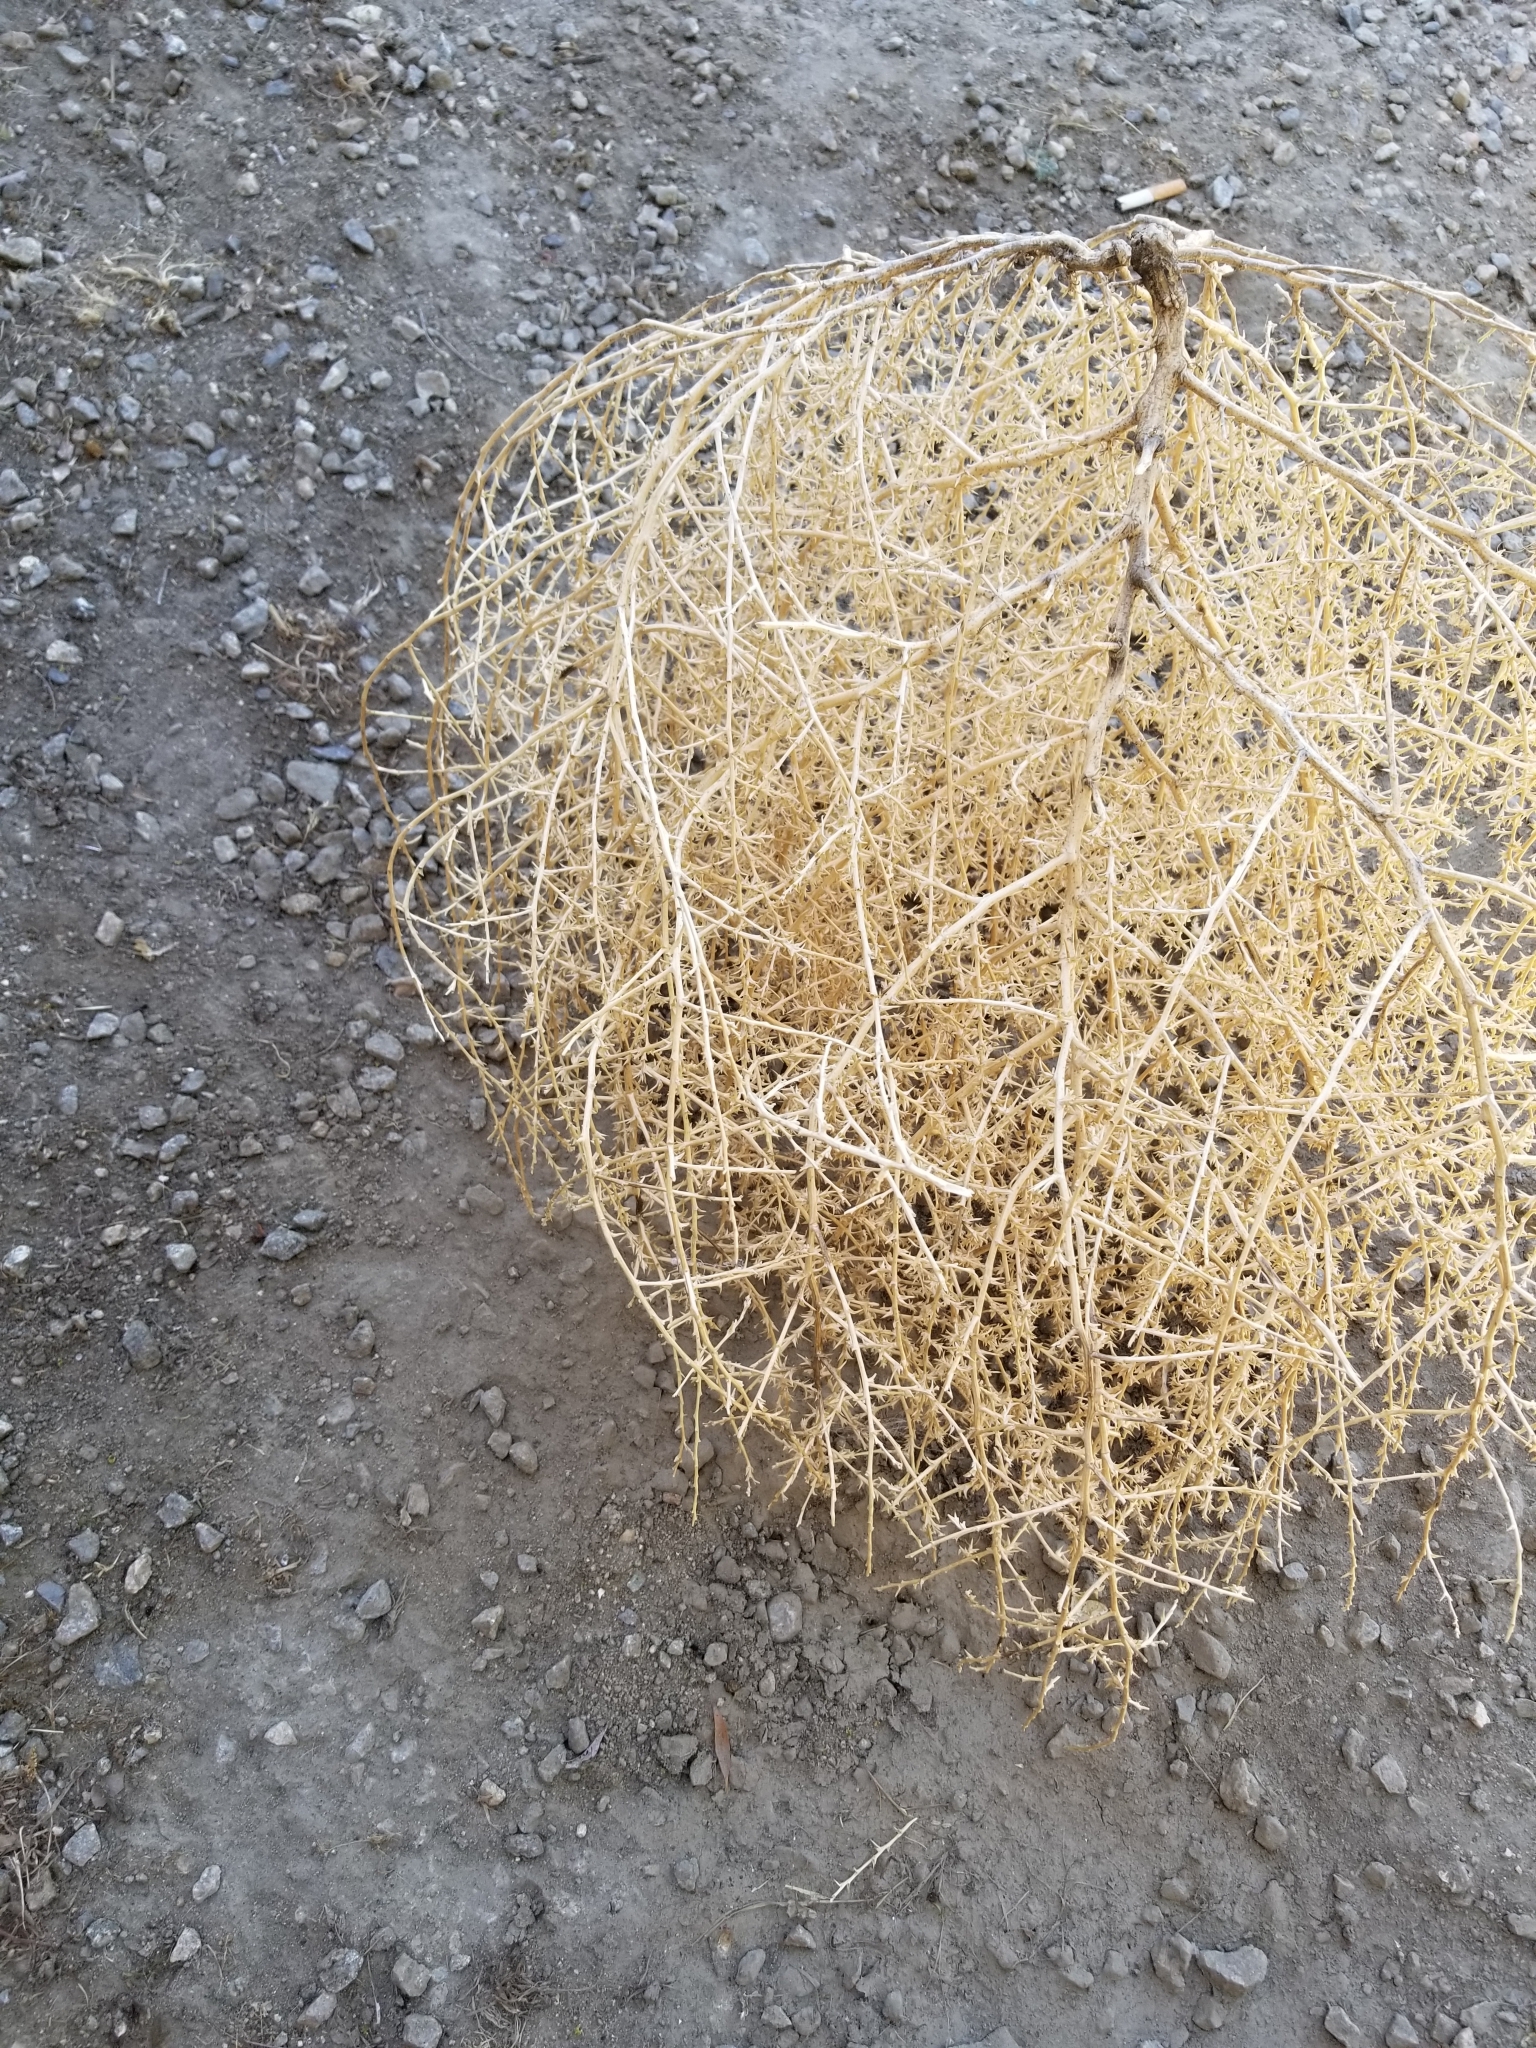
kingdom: Plantae
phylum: Tracheophyta
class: Magnoliopsida
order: Caryophyllales
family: Amaranthaceae
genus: Salsola
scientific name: Salsola tragus
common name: Prickly russian thistle
